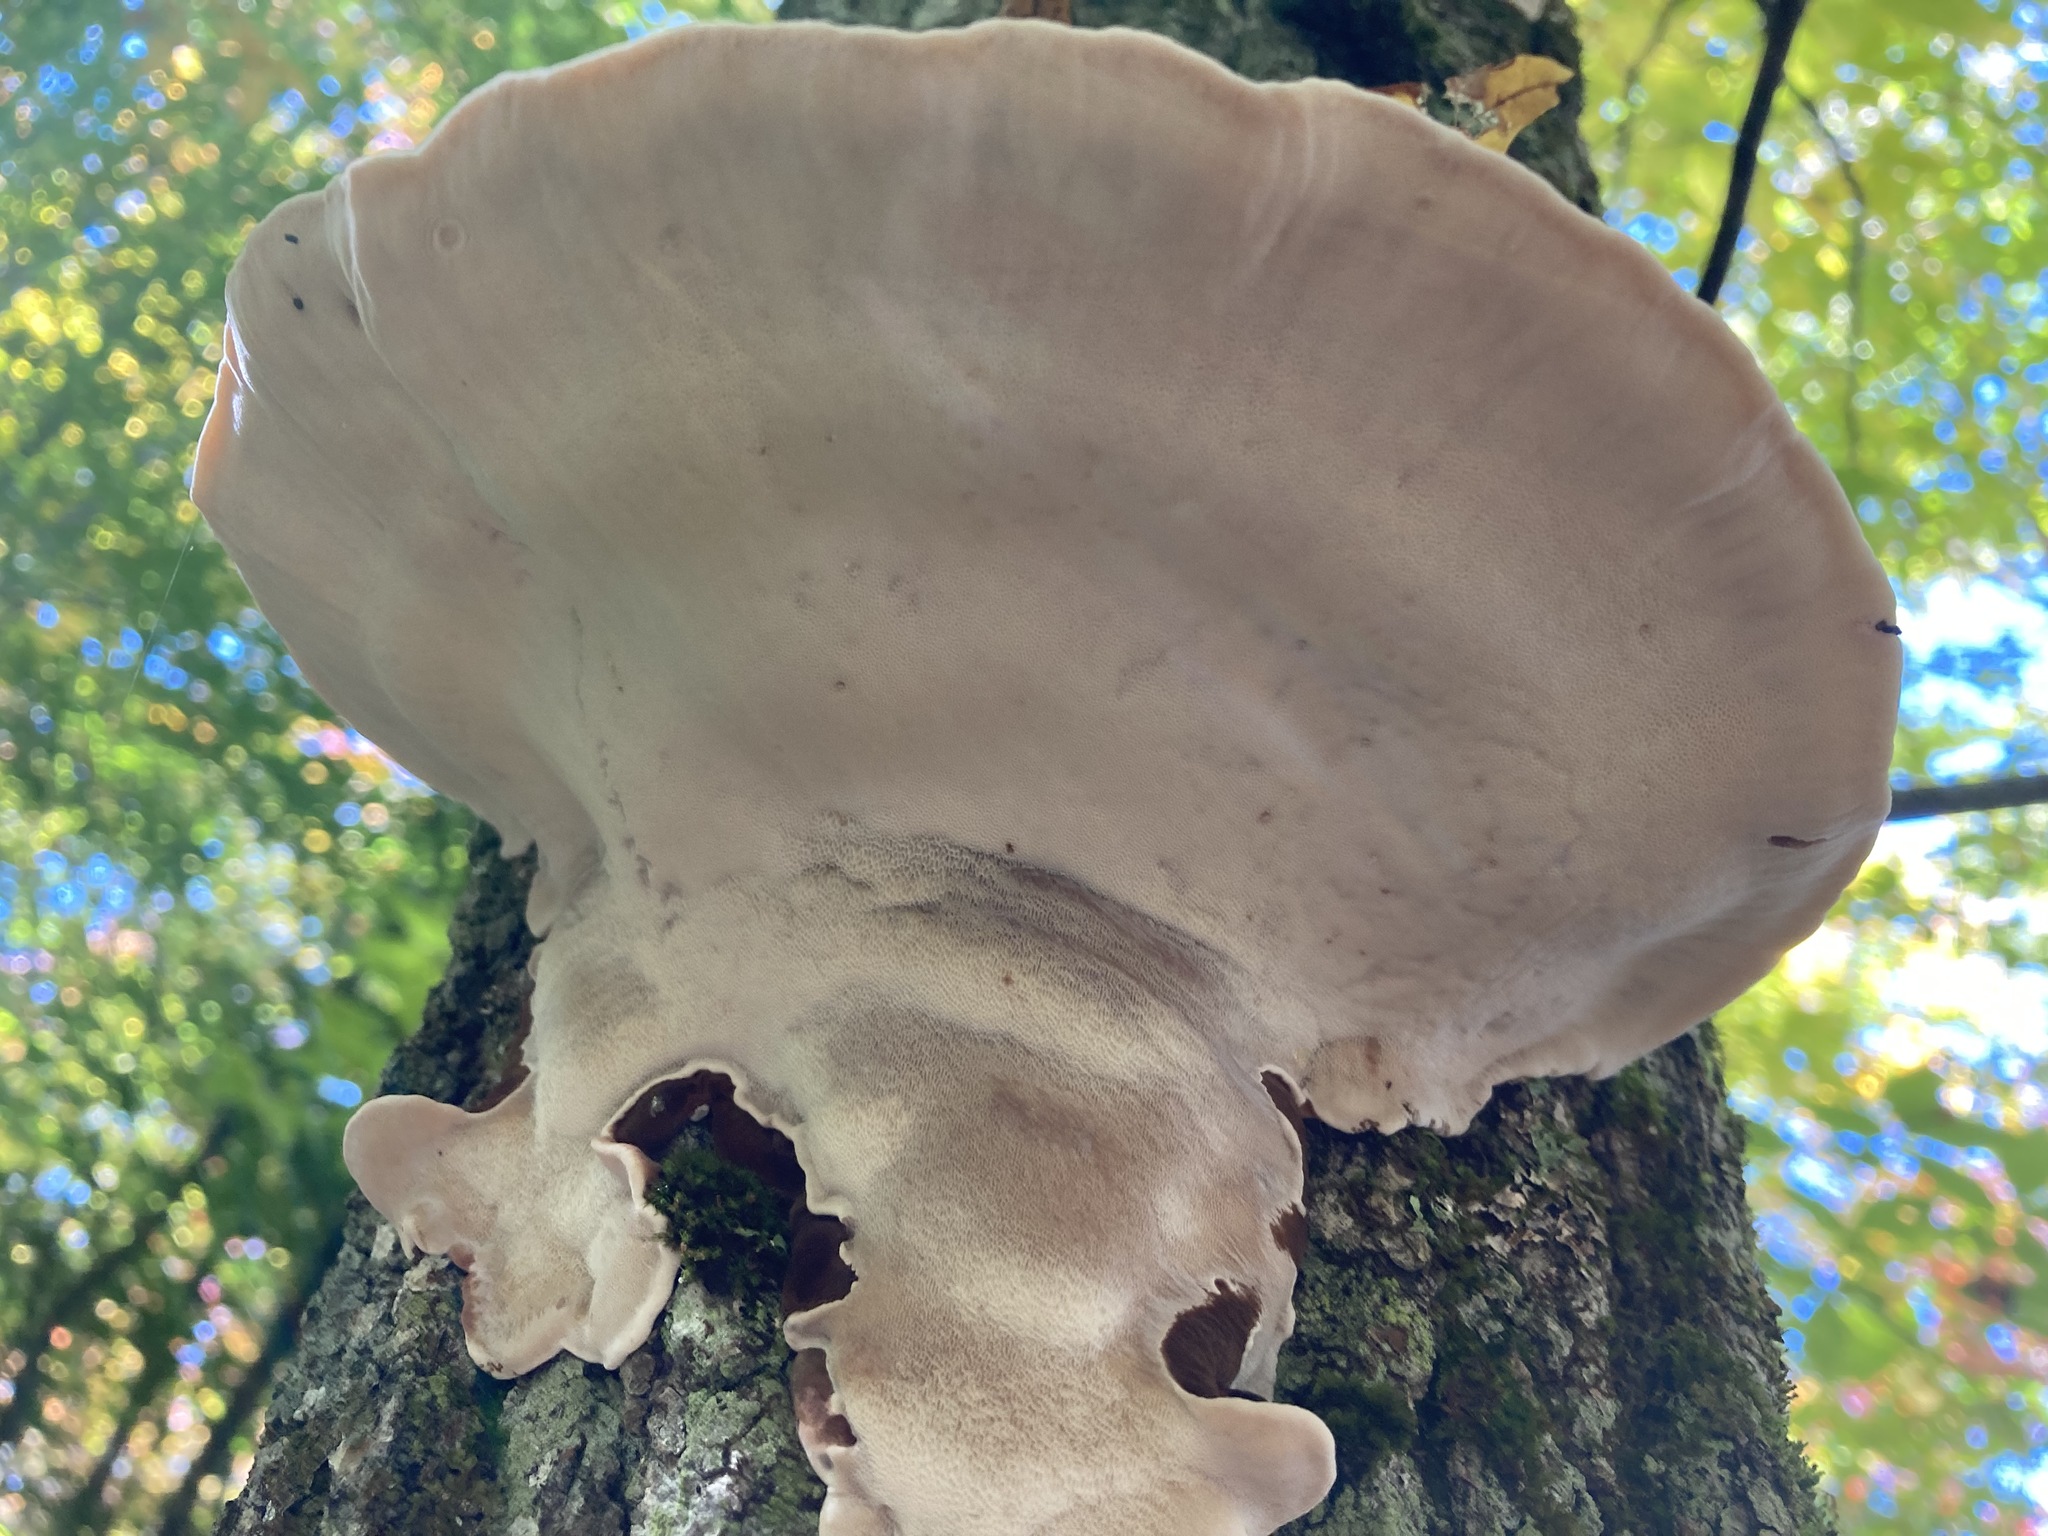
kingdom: Fungi
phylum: Basidiomycota
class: Agaricomycetes
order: Polyporales
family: Ischnodermataceae
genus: Ischnoderma
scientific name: Ischnoderma resinosum
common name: Resinous polypore
